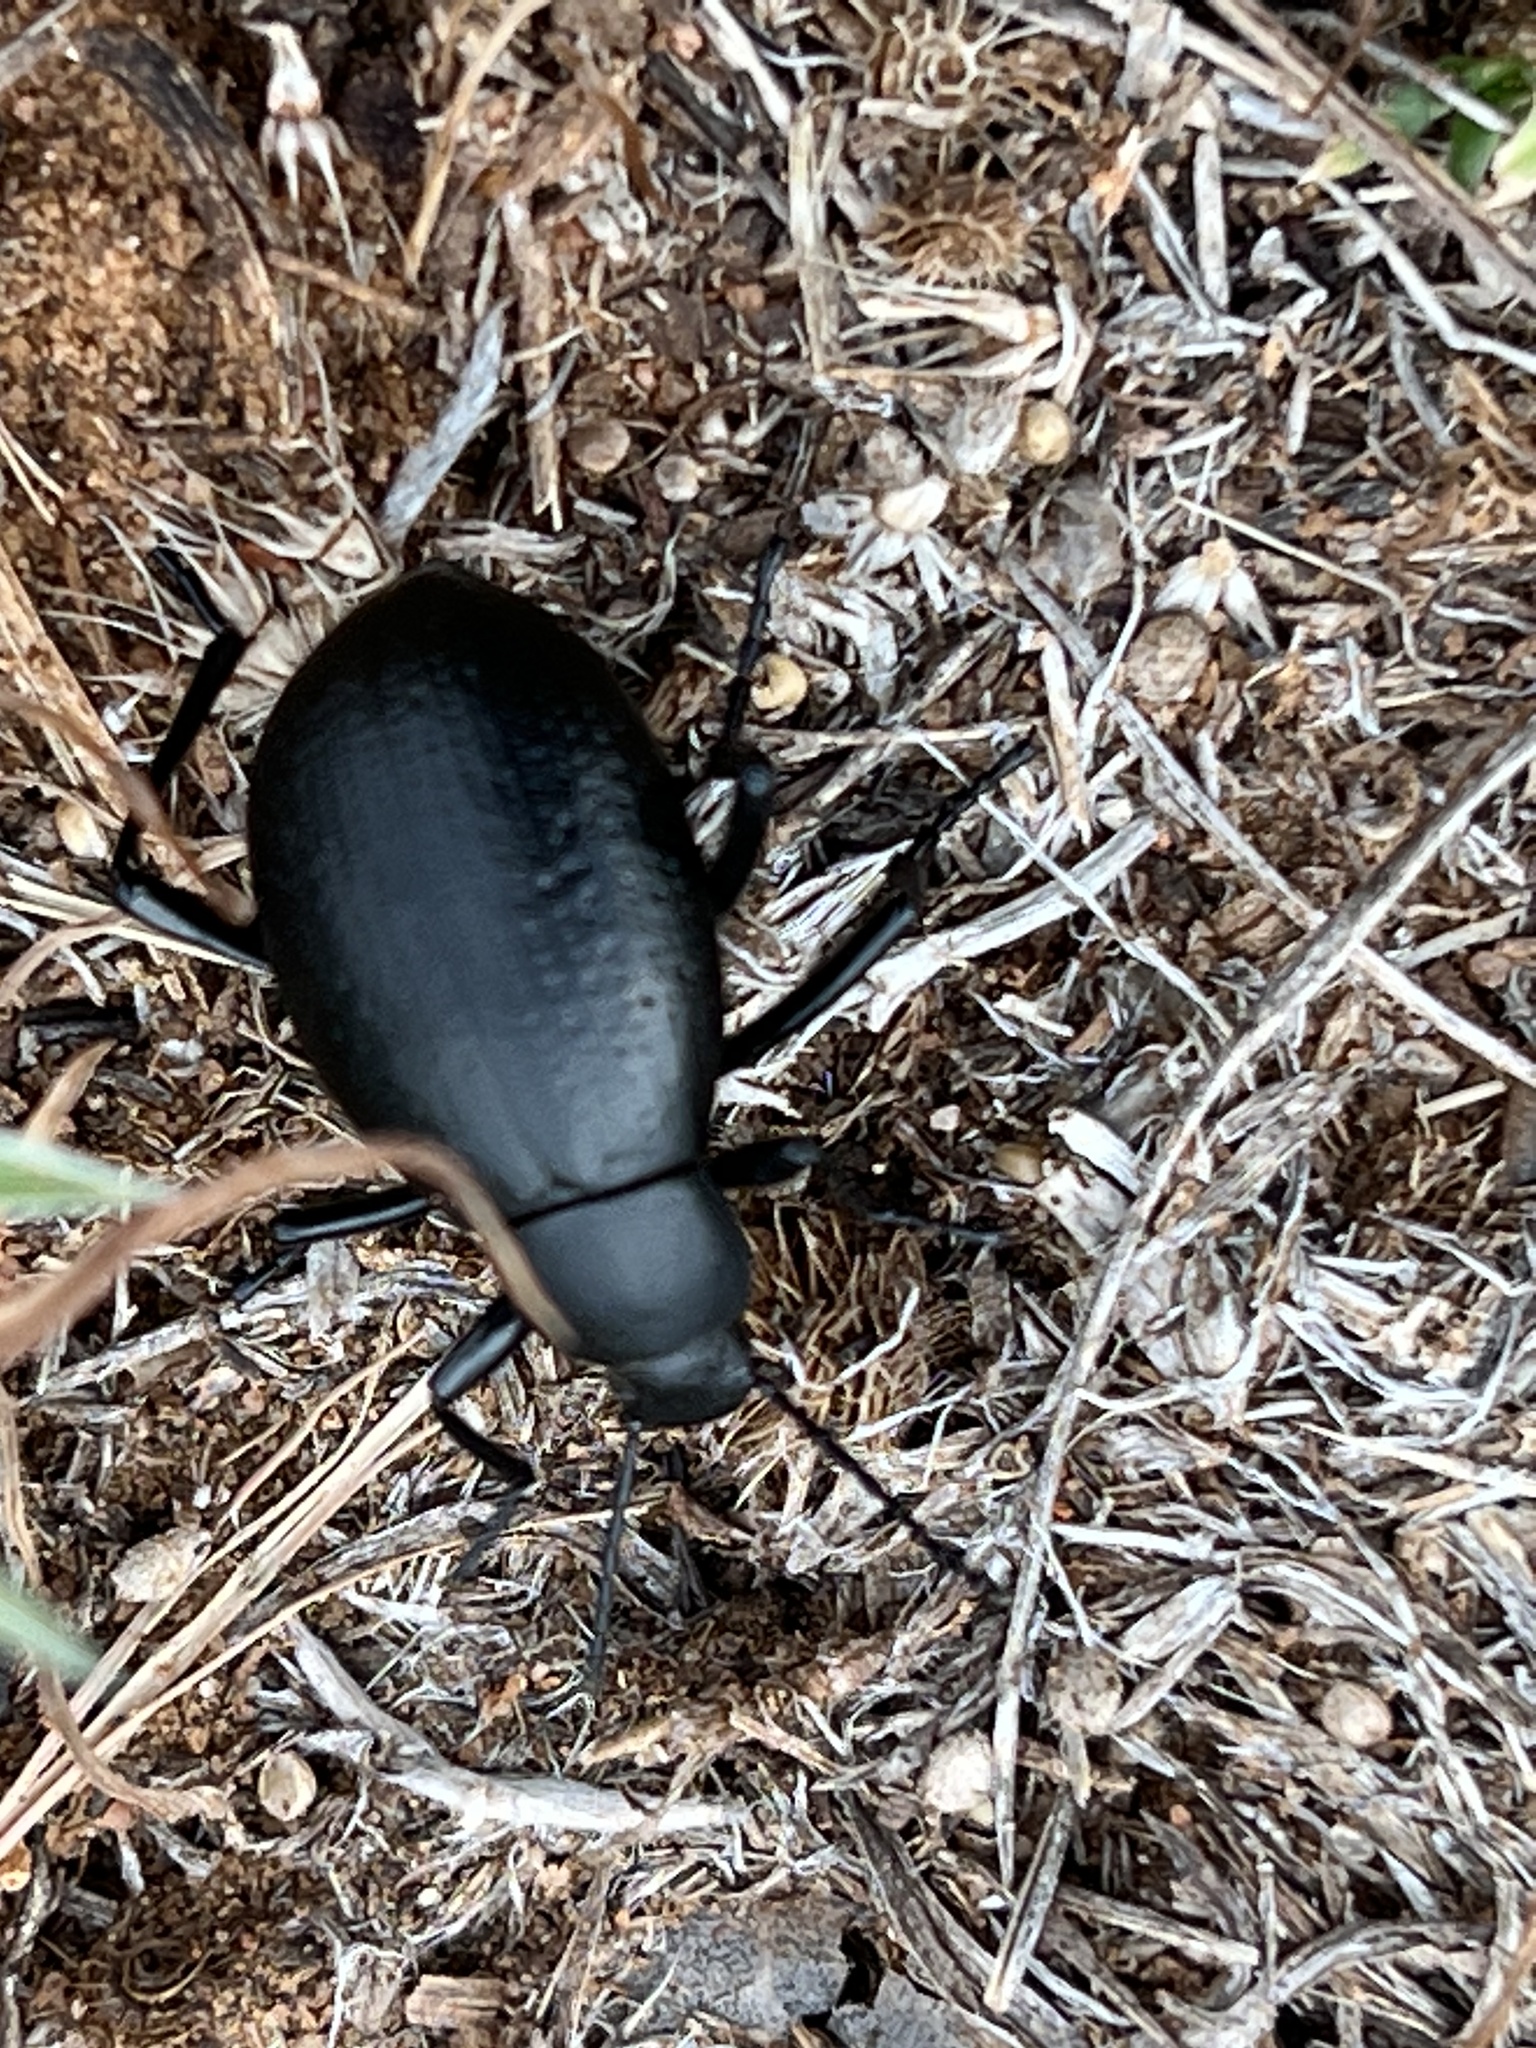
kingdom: Animalia
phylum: Arthropoda
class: Insecta
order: Coleoptera
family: Tenebrionidae
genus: Eleodes
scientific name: Eleodes goryi
